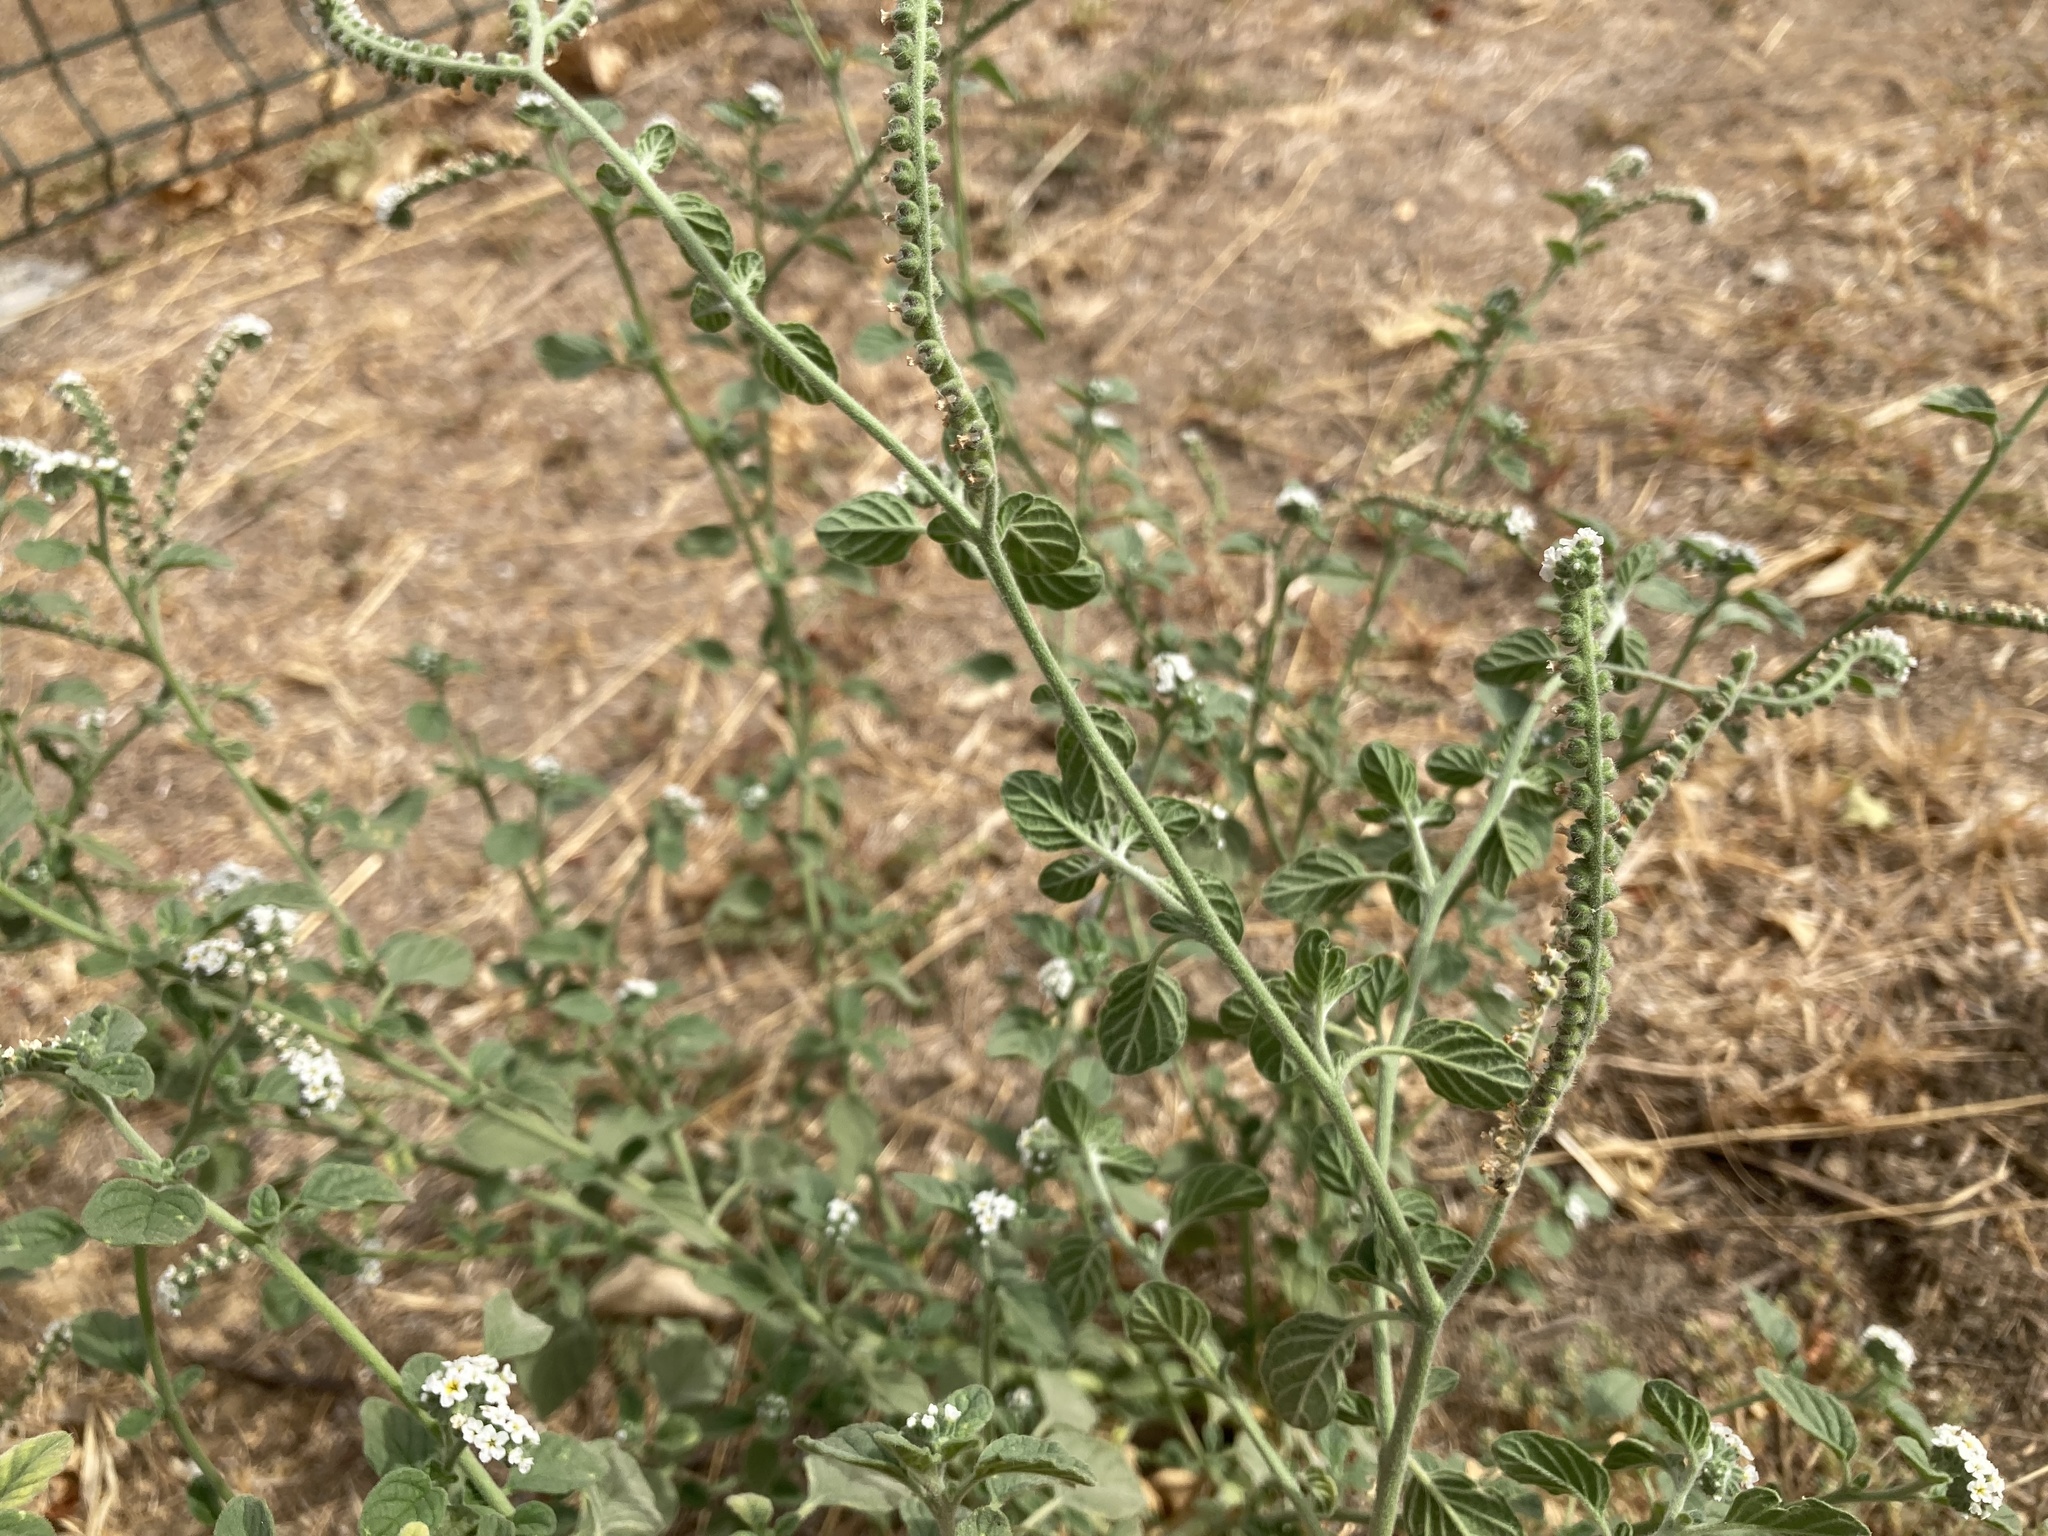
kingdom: Plantae
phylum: Tracheophyta
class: Magnoliopsida
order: Boraginales
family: Heliotropiaceae
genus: Heliotropium
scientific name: Heliotropium europaeum
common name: European heliotrope
